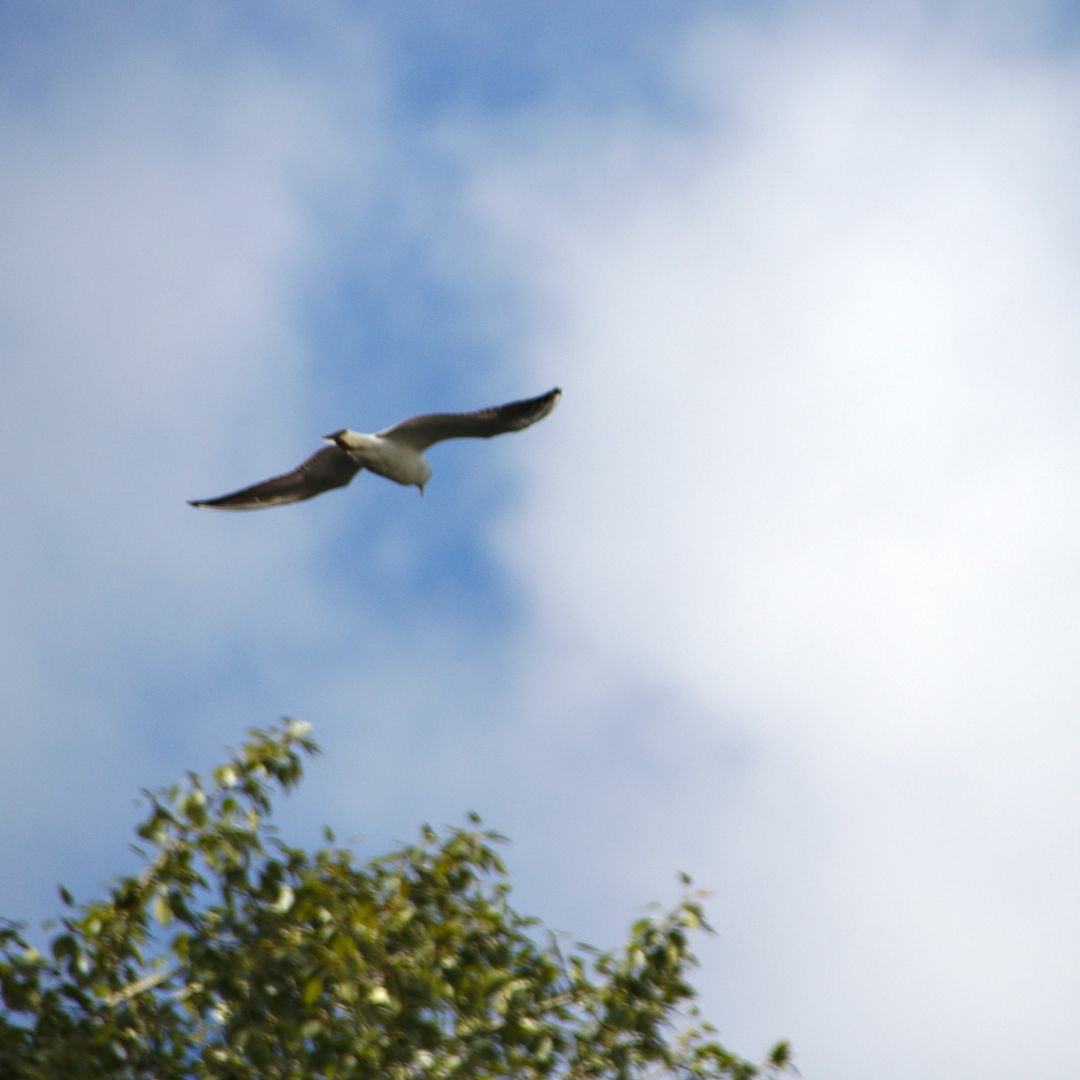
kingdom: Animalia
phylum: Chordata
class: Aves
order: Charadriiformes
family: Laridae
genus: Chroicocephalus
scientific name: Chroicocephalus ridibundus
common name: Black-headed gull
